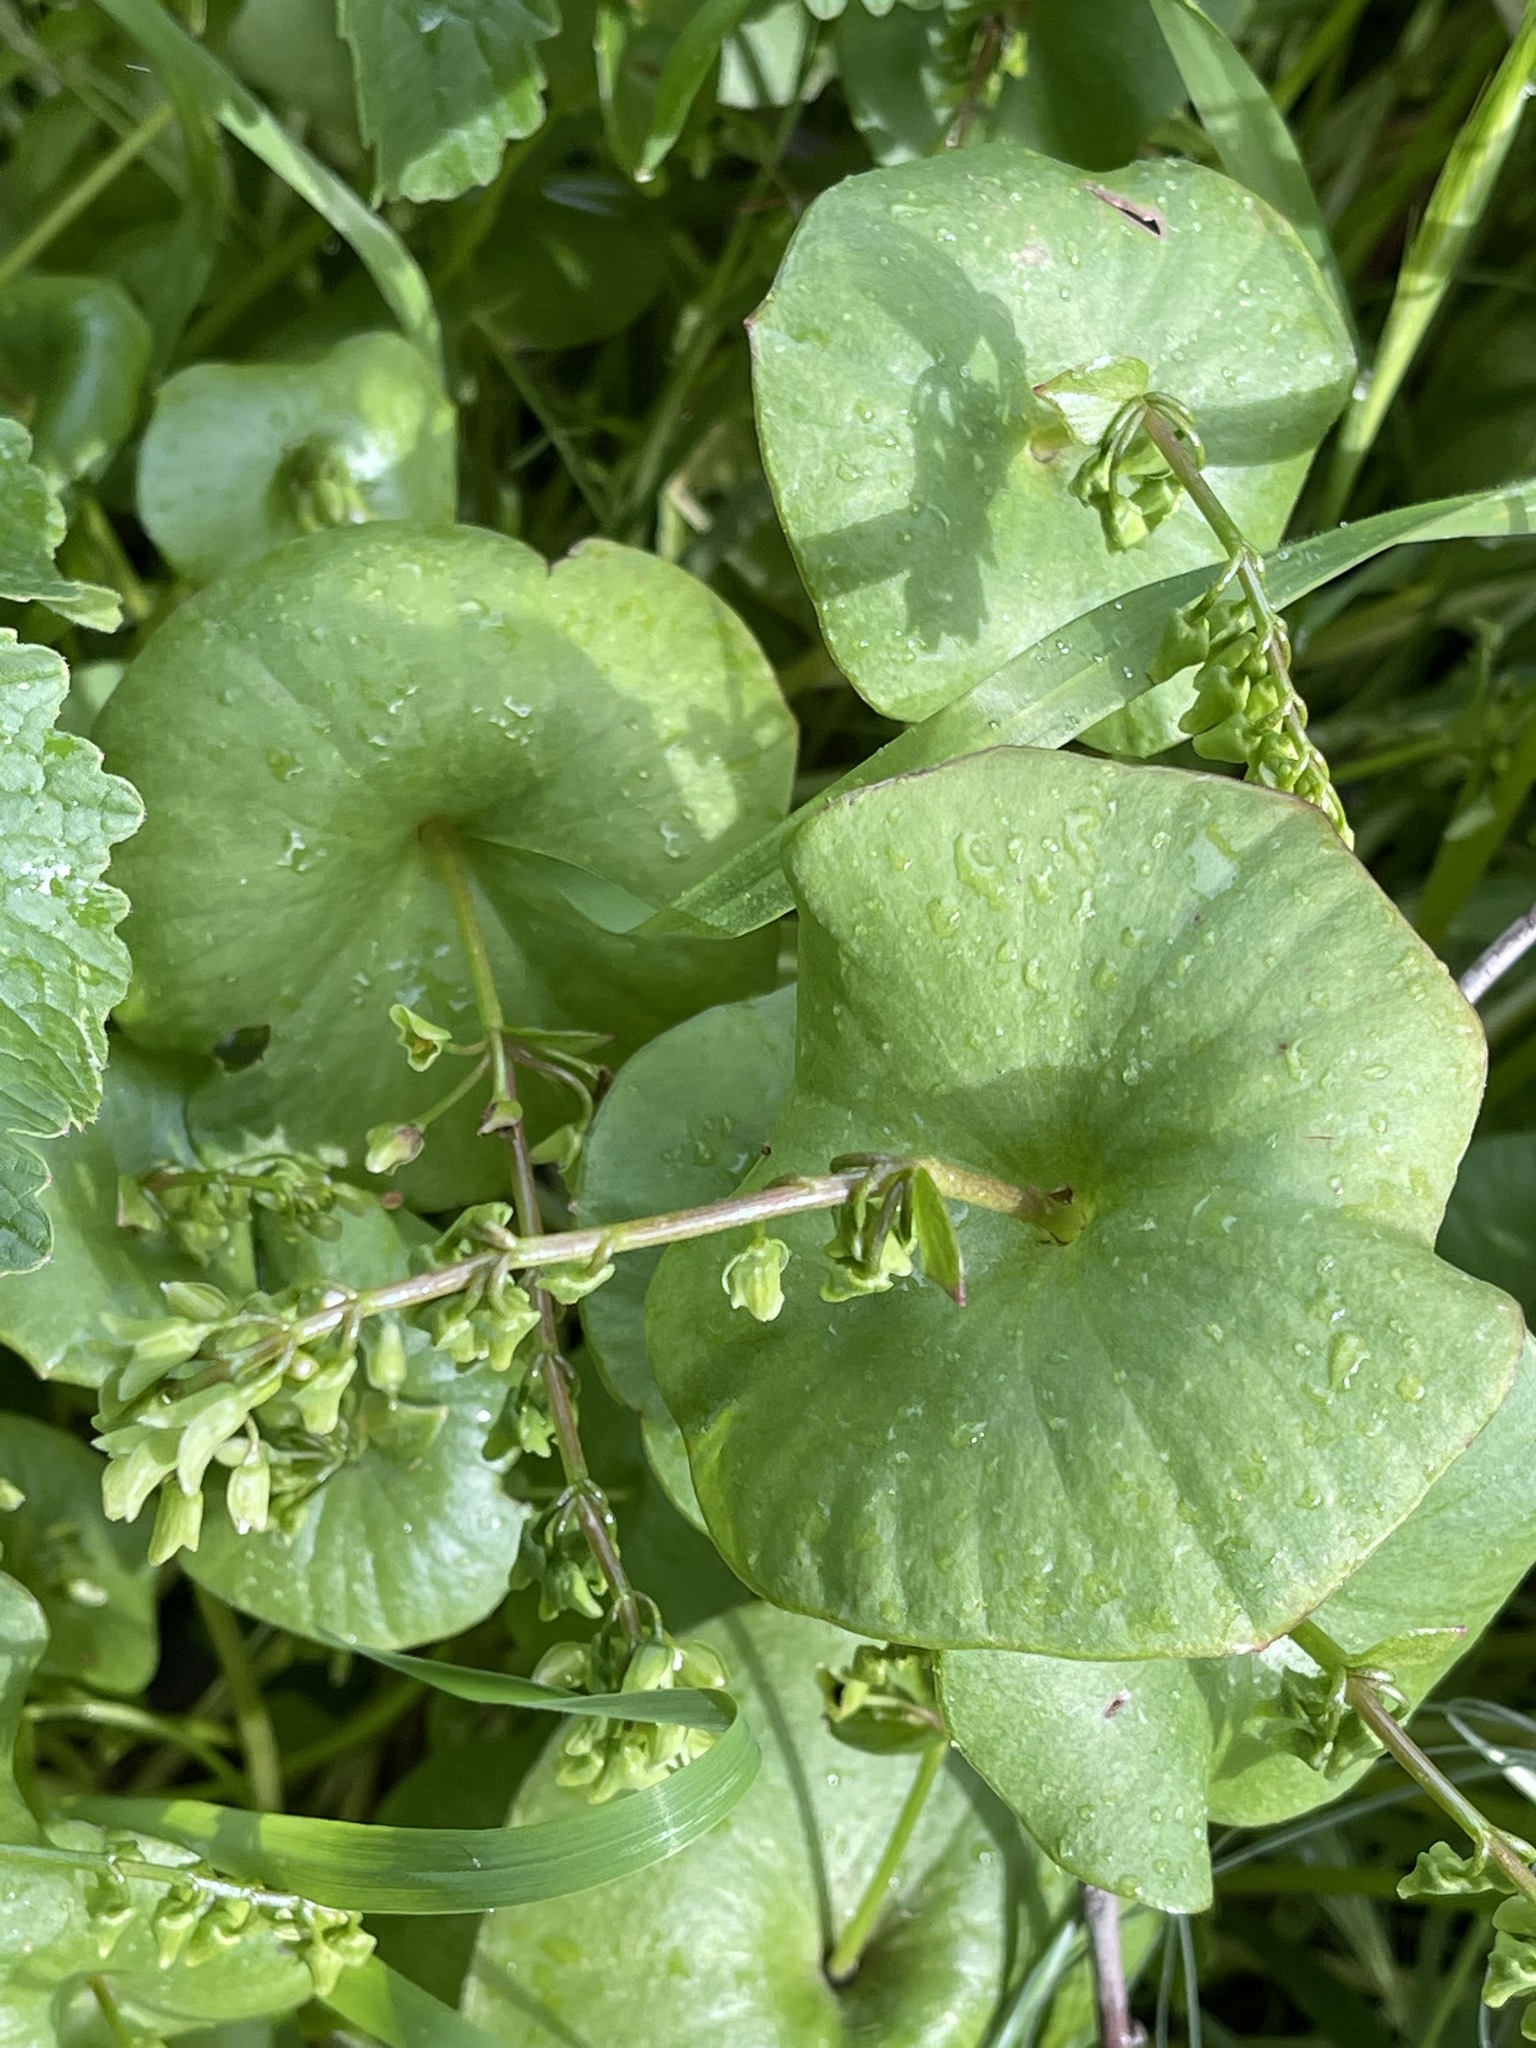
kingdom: Plantae
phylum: Tracheophyta
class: Magnoliopsida
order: Caryophyllales
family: Montiaceae
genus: Claytonia
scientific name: Claytonia perfoliata
